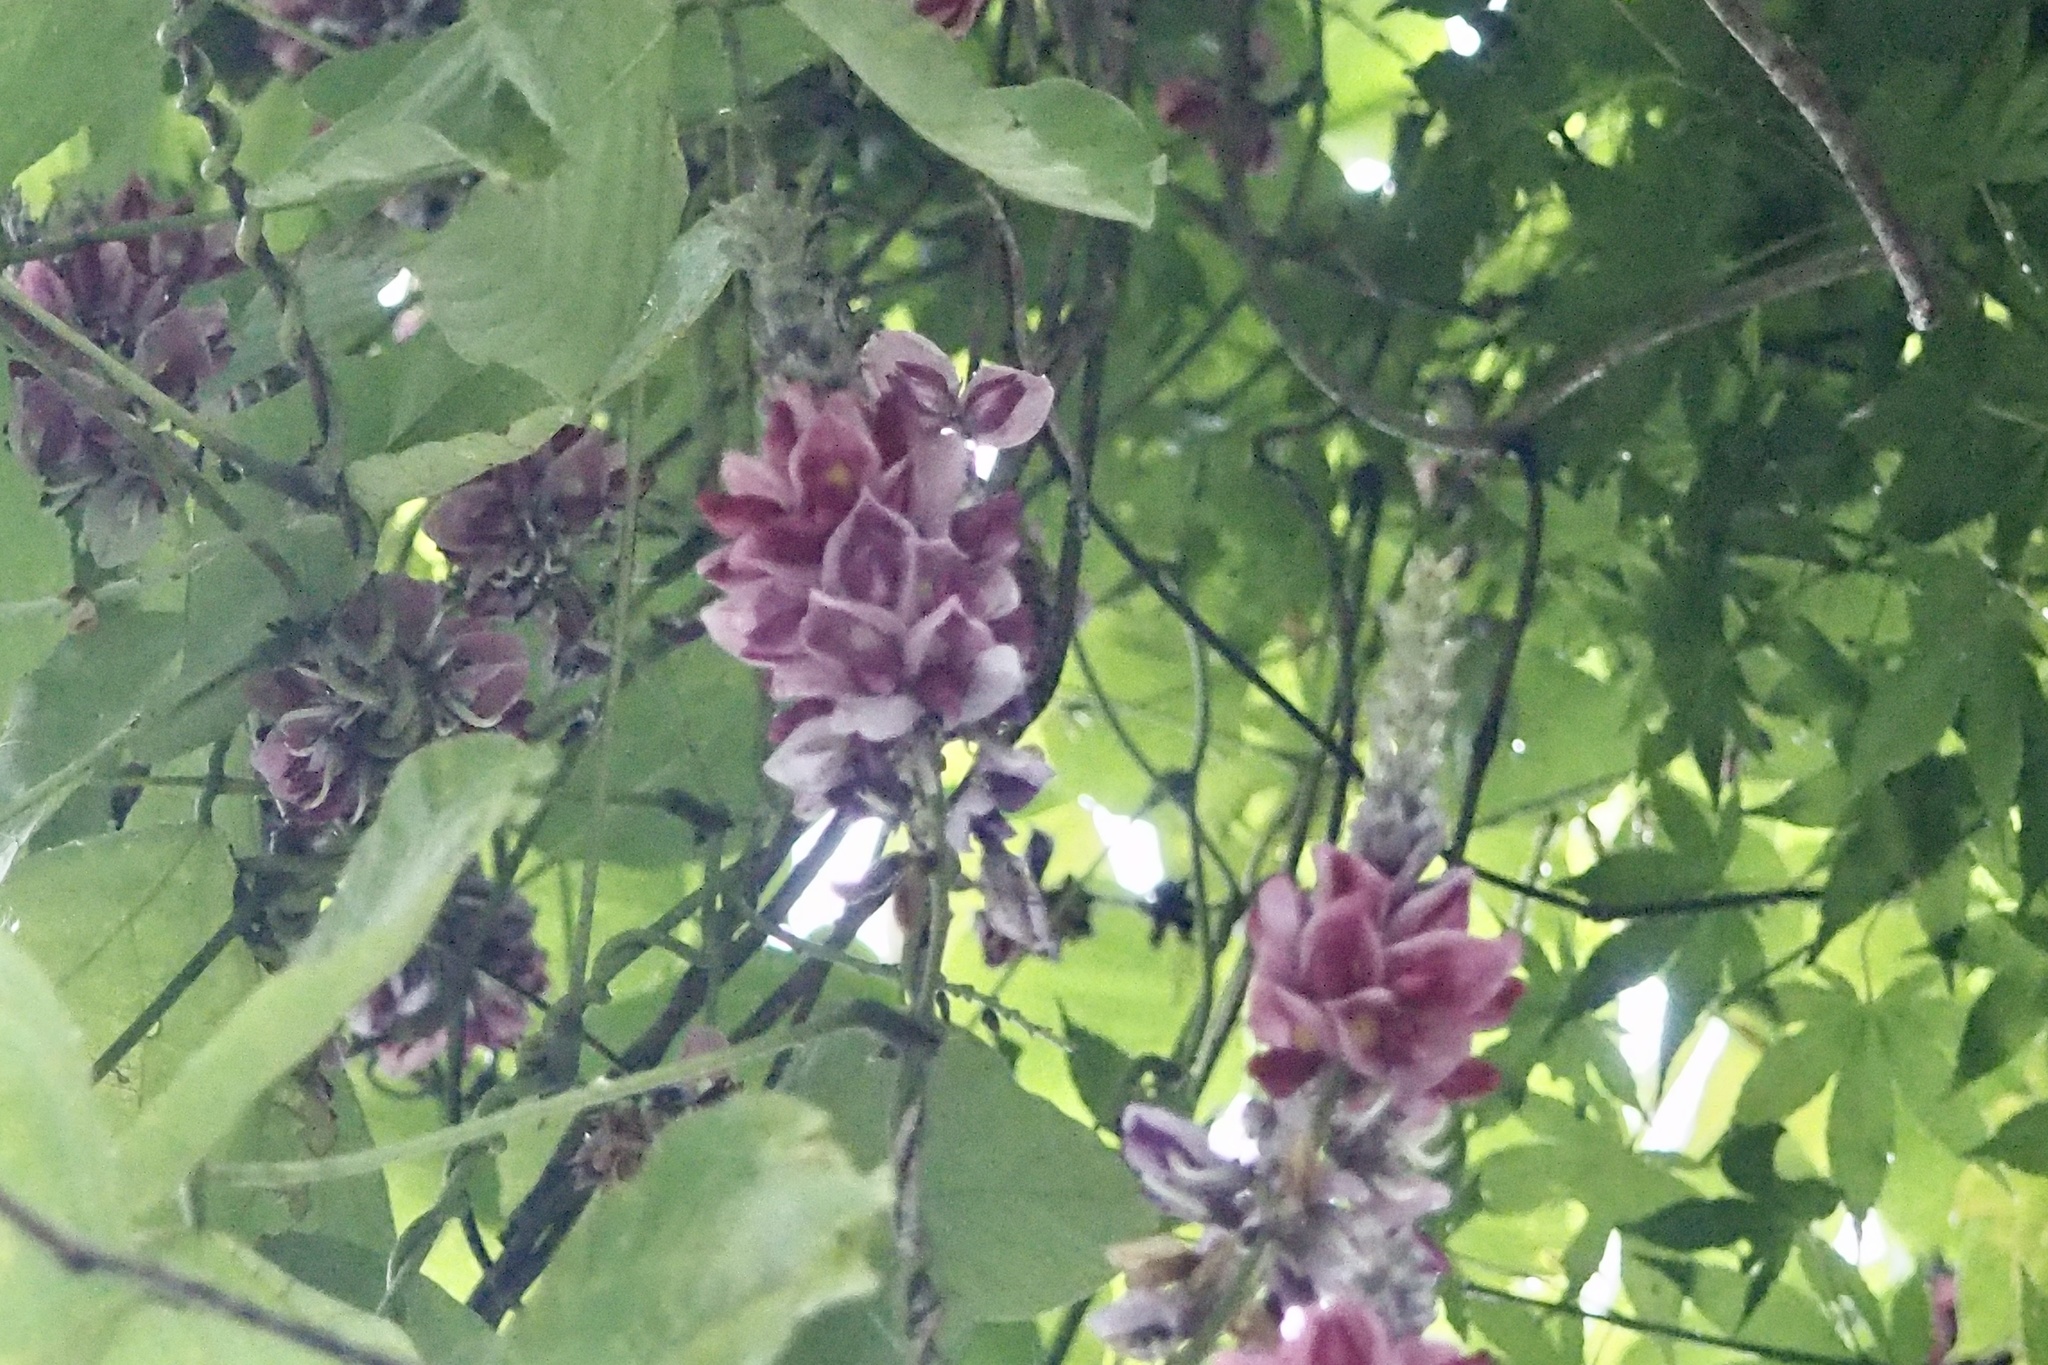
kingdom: Plantae
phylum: Tracheophyta
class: Magnoliopsida
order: Fabales
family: Fabaceae
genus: Pueraria
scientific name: Pueraria montana
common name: Kudzu
